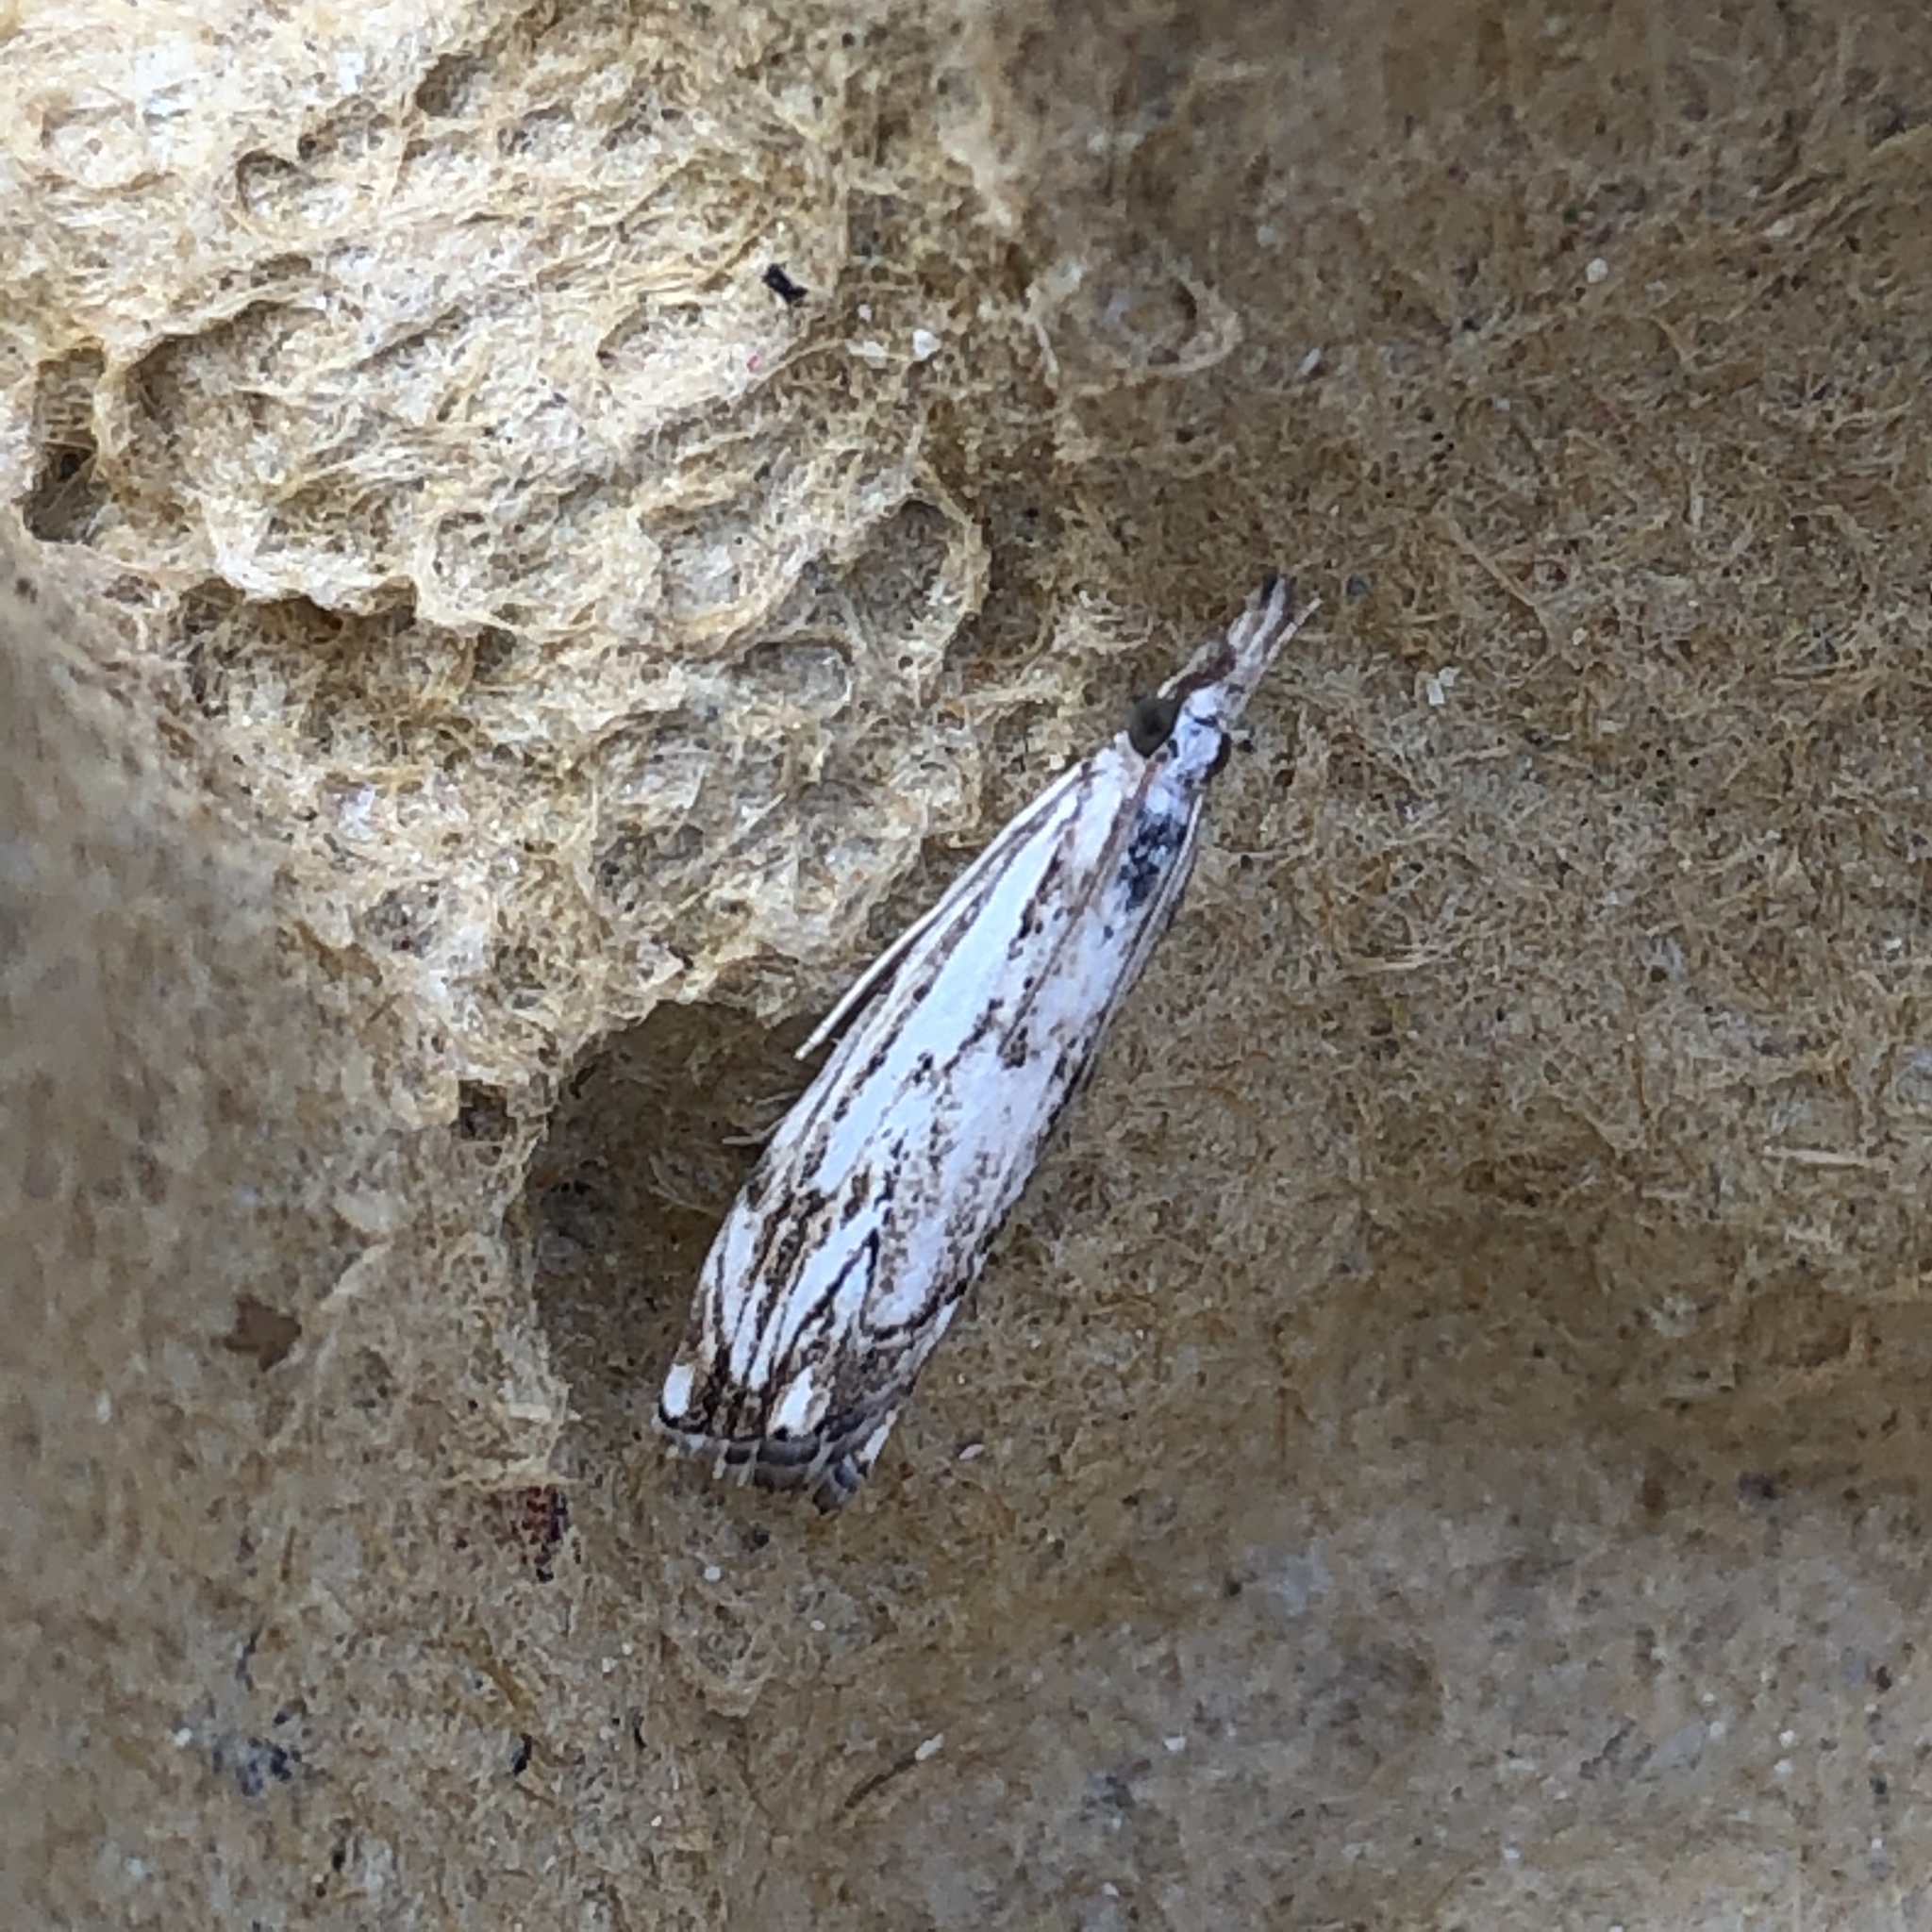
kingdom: Animalia
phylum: Arthropoda
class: Insecta
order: Lepidoptera
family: Crambidae
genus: Catoptria
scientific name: Catoptria falsella
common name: Chequered grass-veneer
